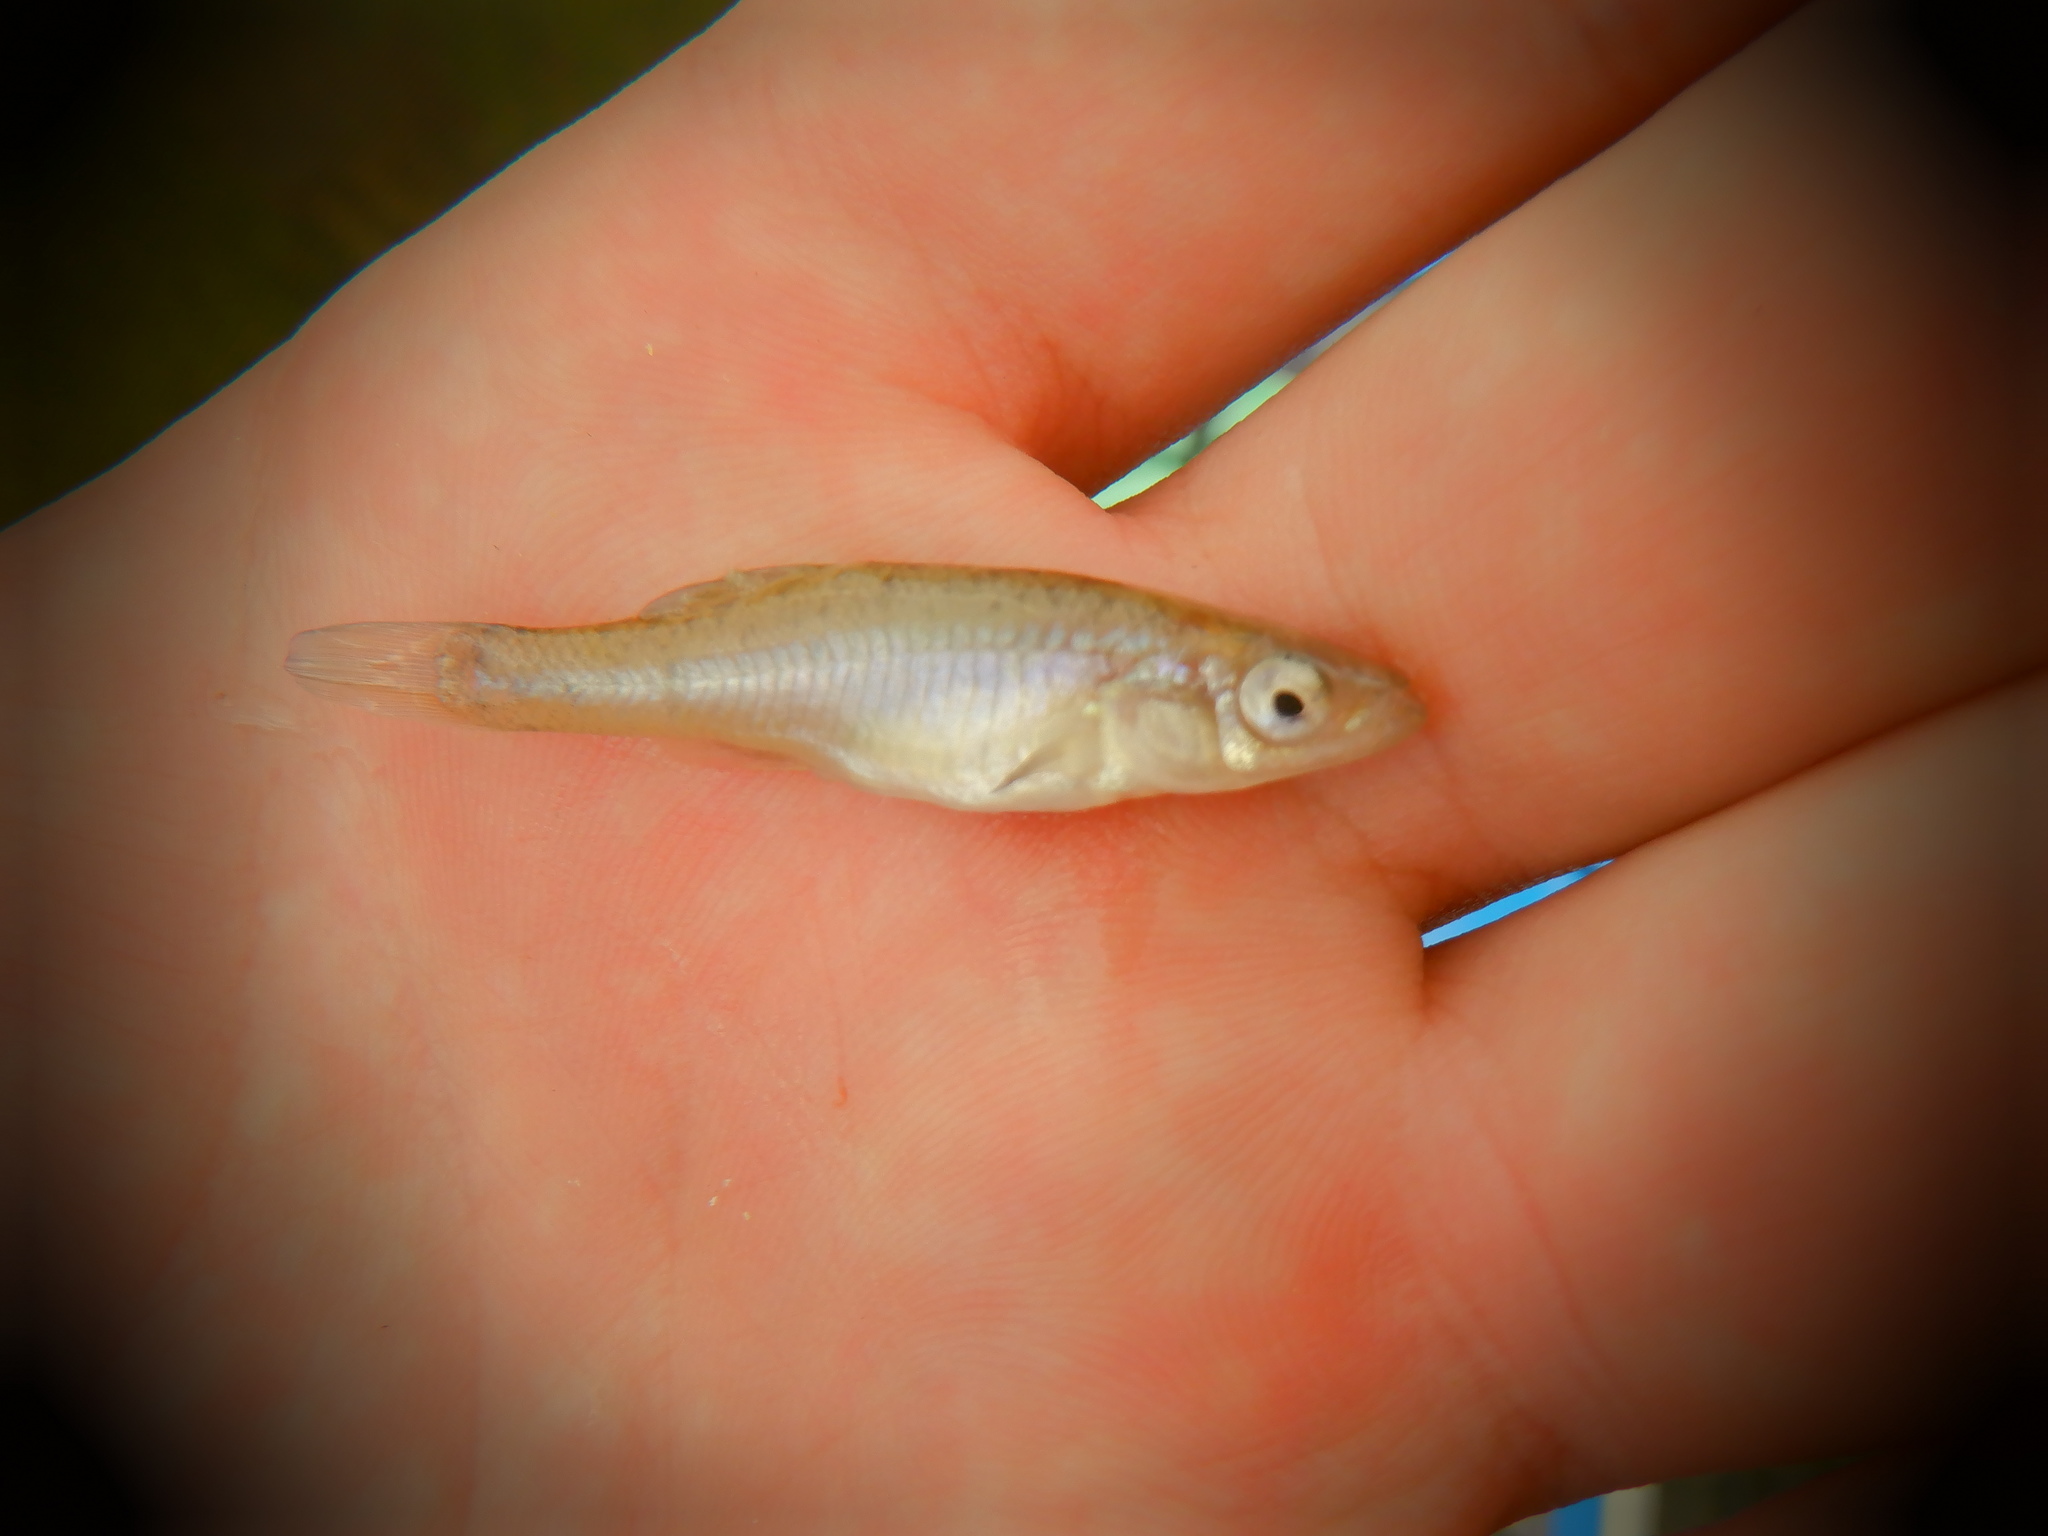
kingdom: Animalia
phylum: Chordata
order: Cyprinodontiformes
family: Fundulidae
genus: Fundulus
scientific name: Fundulus diaphanus
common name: Banded killifish
